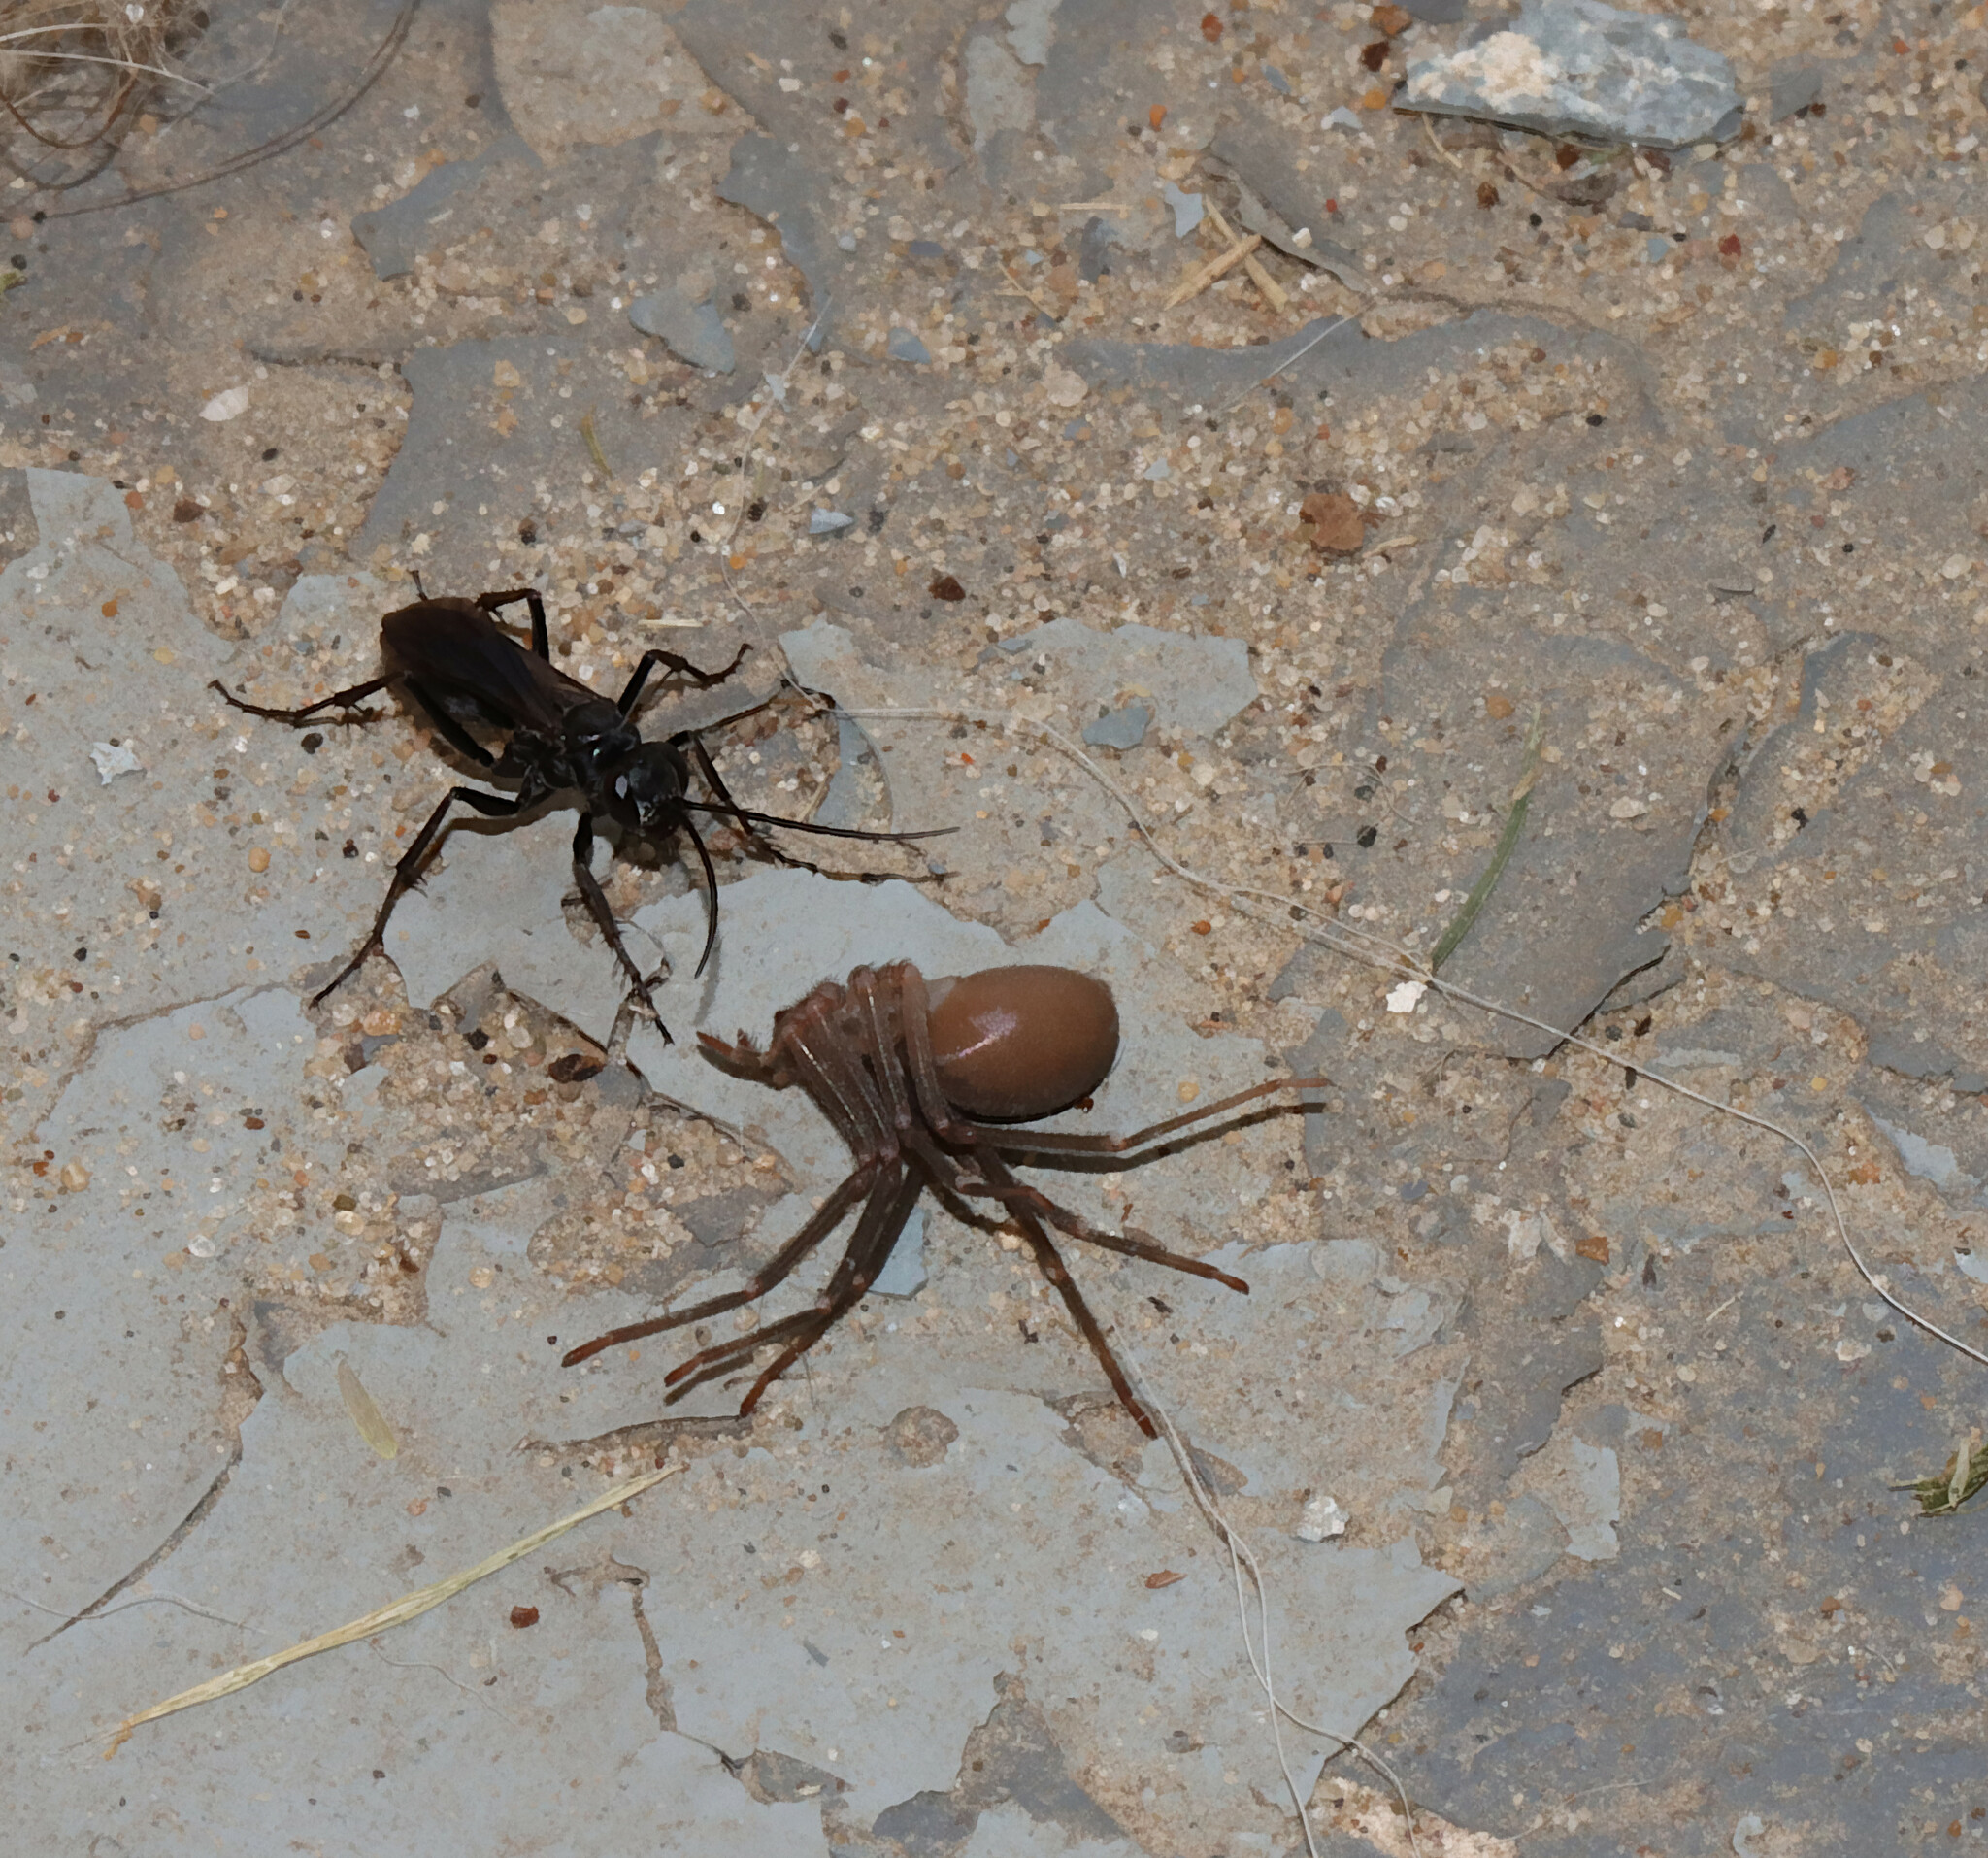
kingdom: Animalia
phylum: Arthropoda
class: Arachnida
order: Araneae
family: Sicariidae
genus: Loxosceles
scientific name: Loxosceles reclusa
